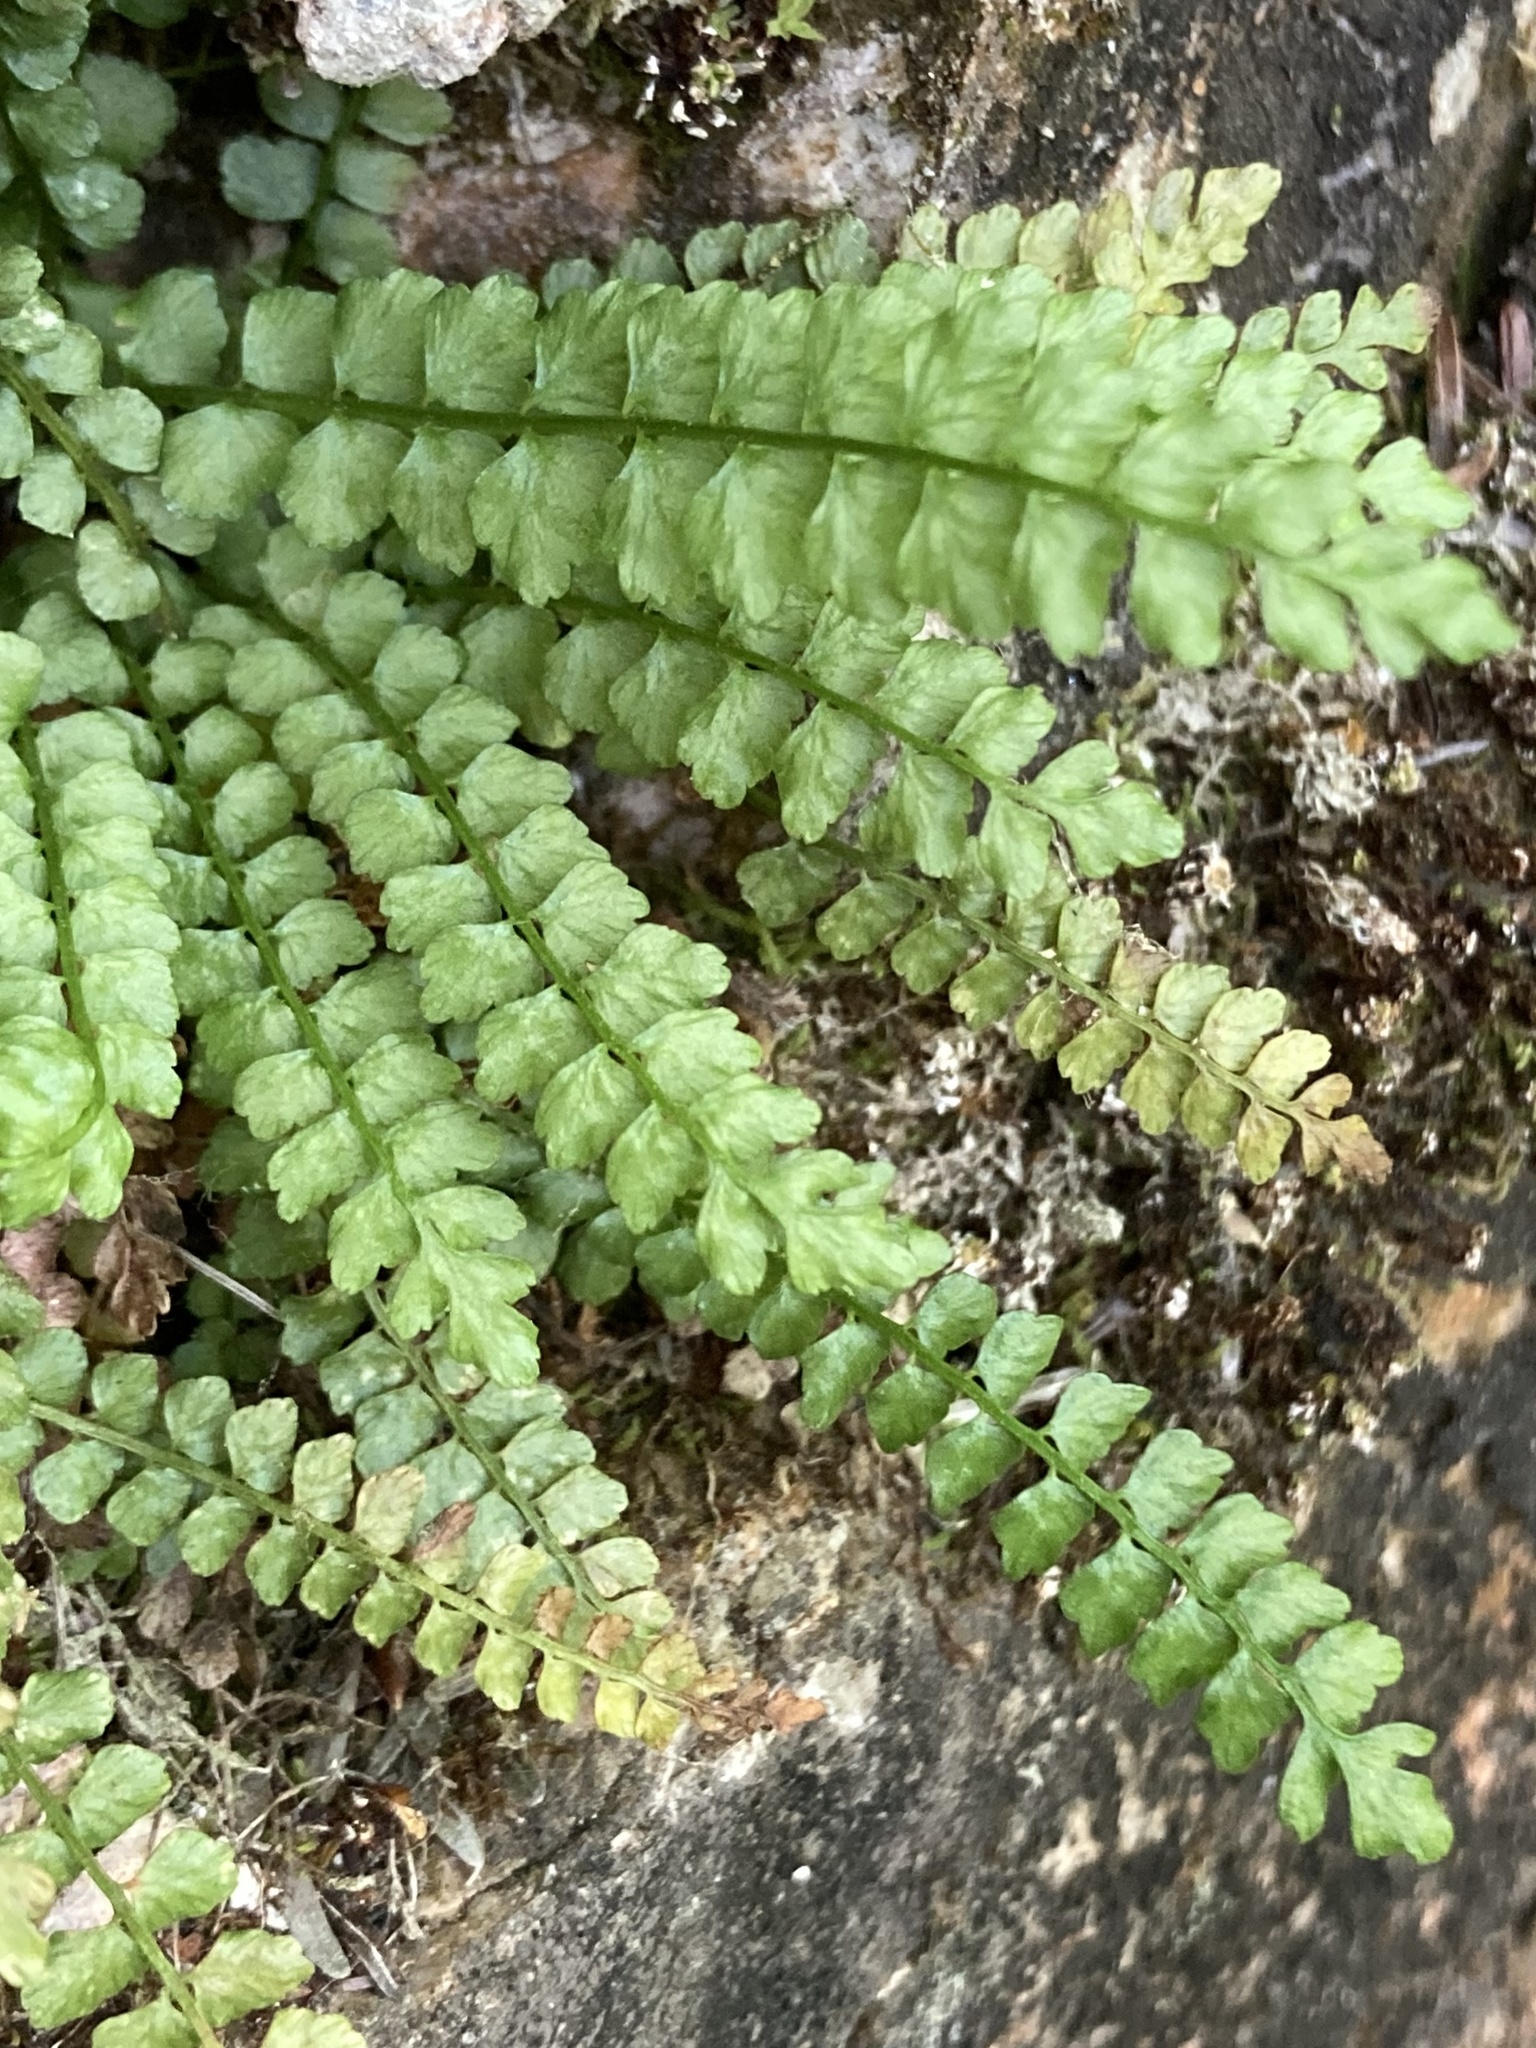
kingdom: Plantae
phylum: Tracheophyta
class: Polypodiopsida
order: Polypodiales
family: Aspleniaceae
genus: Asplenium
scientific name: Asplenium viride
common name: Green spleenwort
